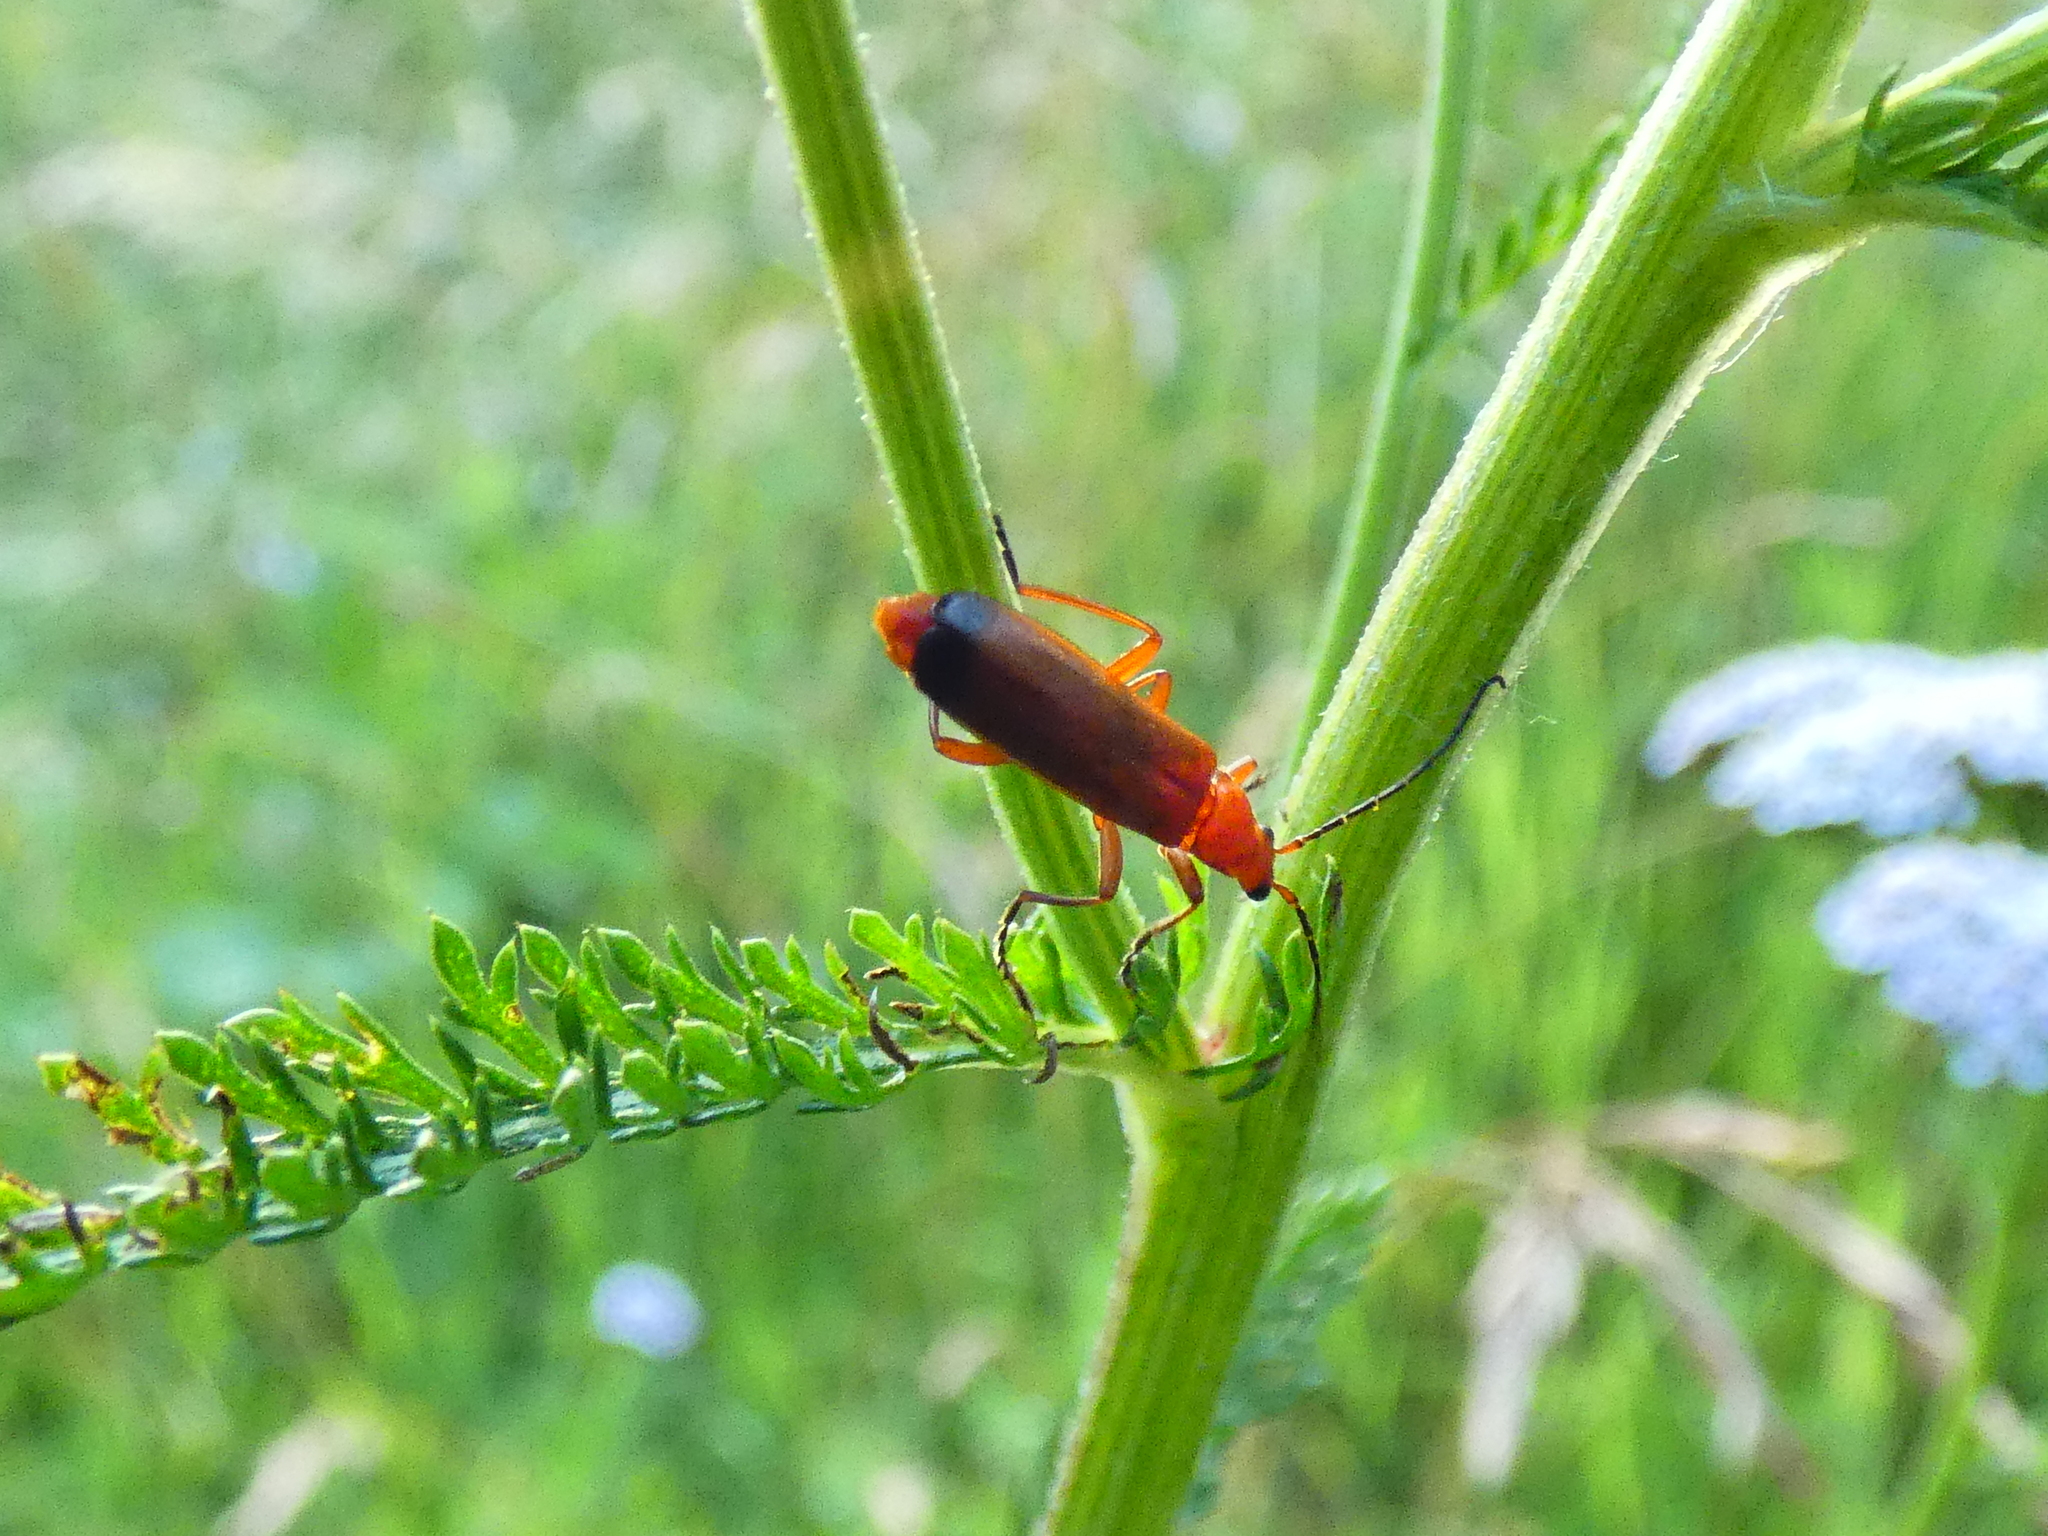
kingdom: Animalia
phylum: Arthropoda
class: Insecta
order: Coleoptera
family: Cantharidae
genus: Rhagonycha
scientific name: Rhagonycha fulva
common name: Common red soldier beetle
